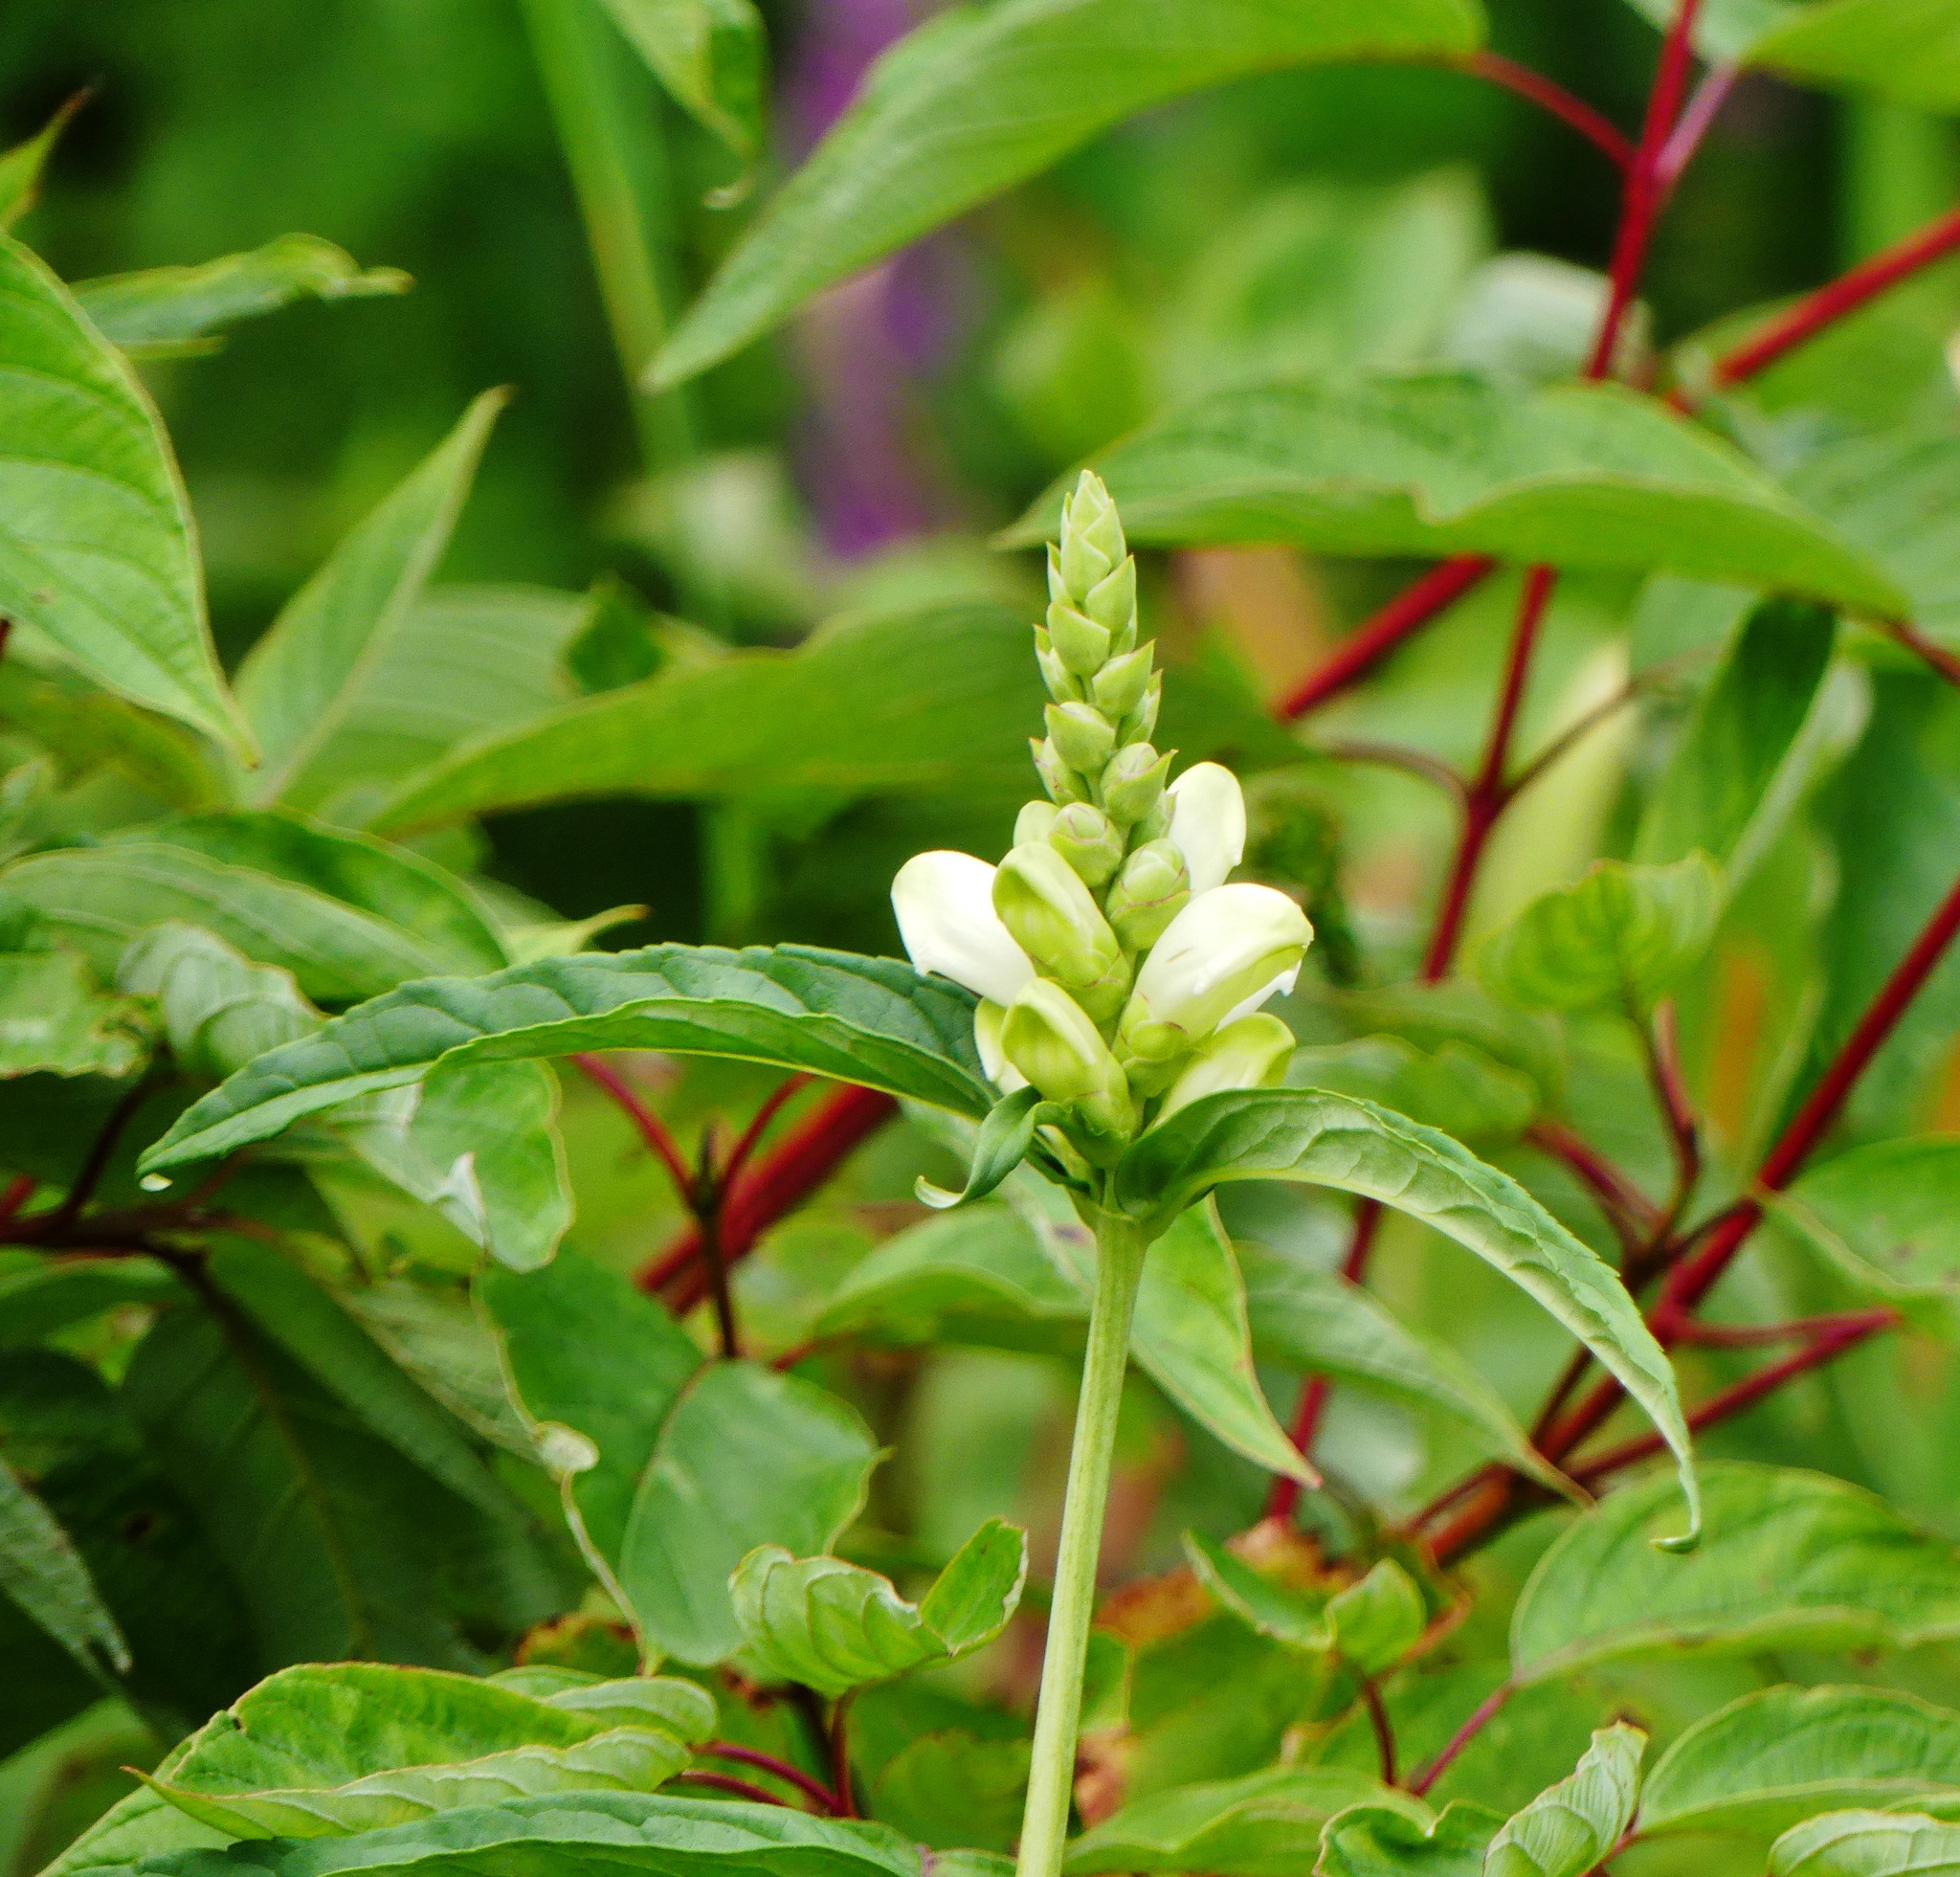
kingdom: Plantae
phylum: Tracheophyta
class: Magnoliopsida
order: Lamiales
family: Plantaginaceae
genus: Chelone
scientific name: Chelone glabra
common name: Snakehead
